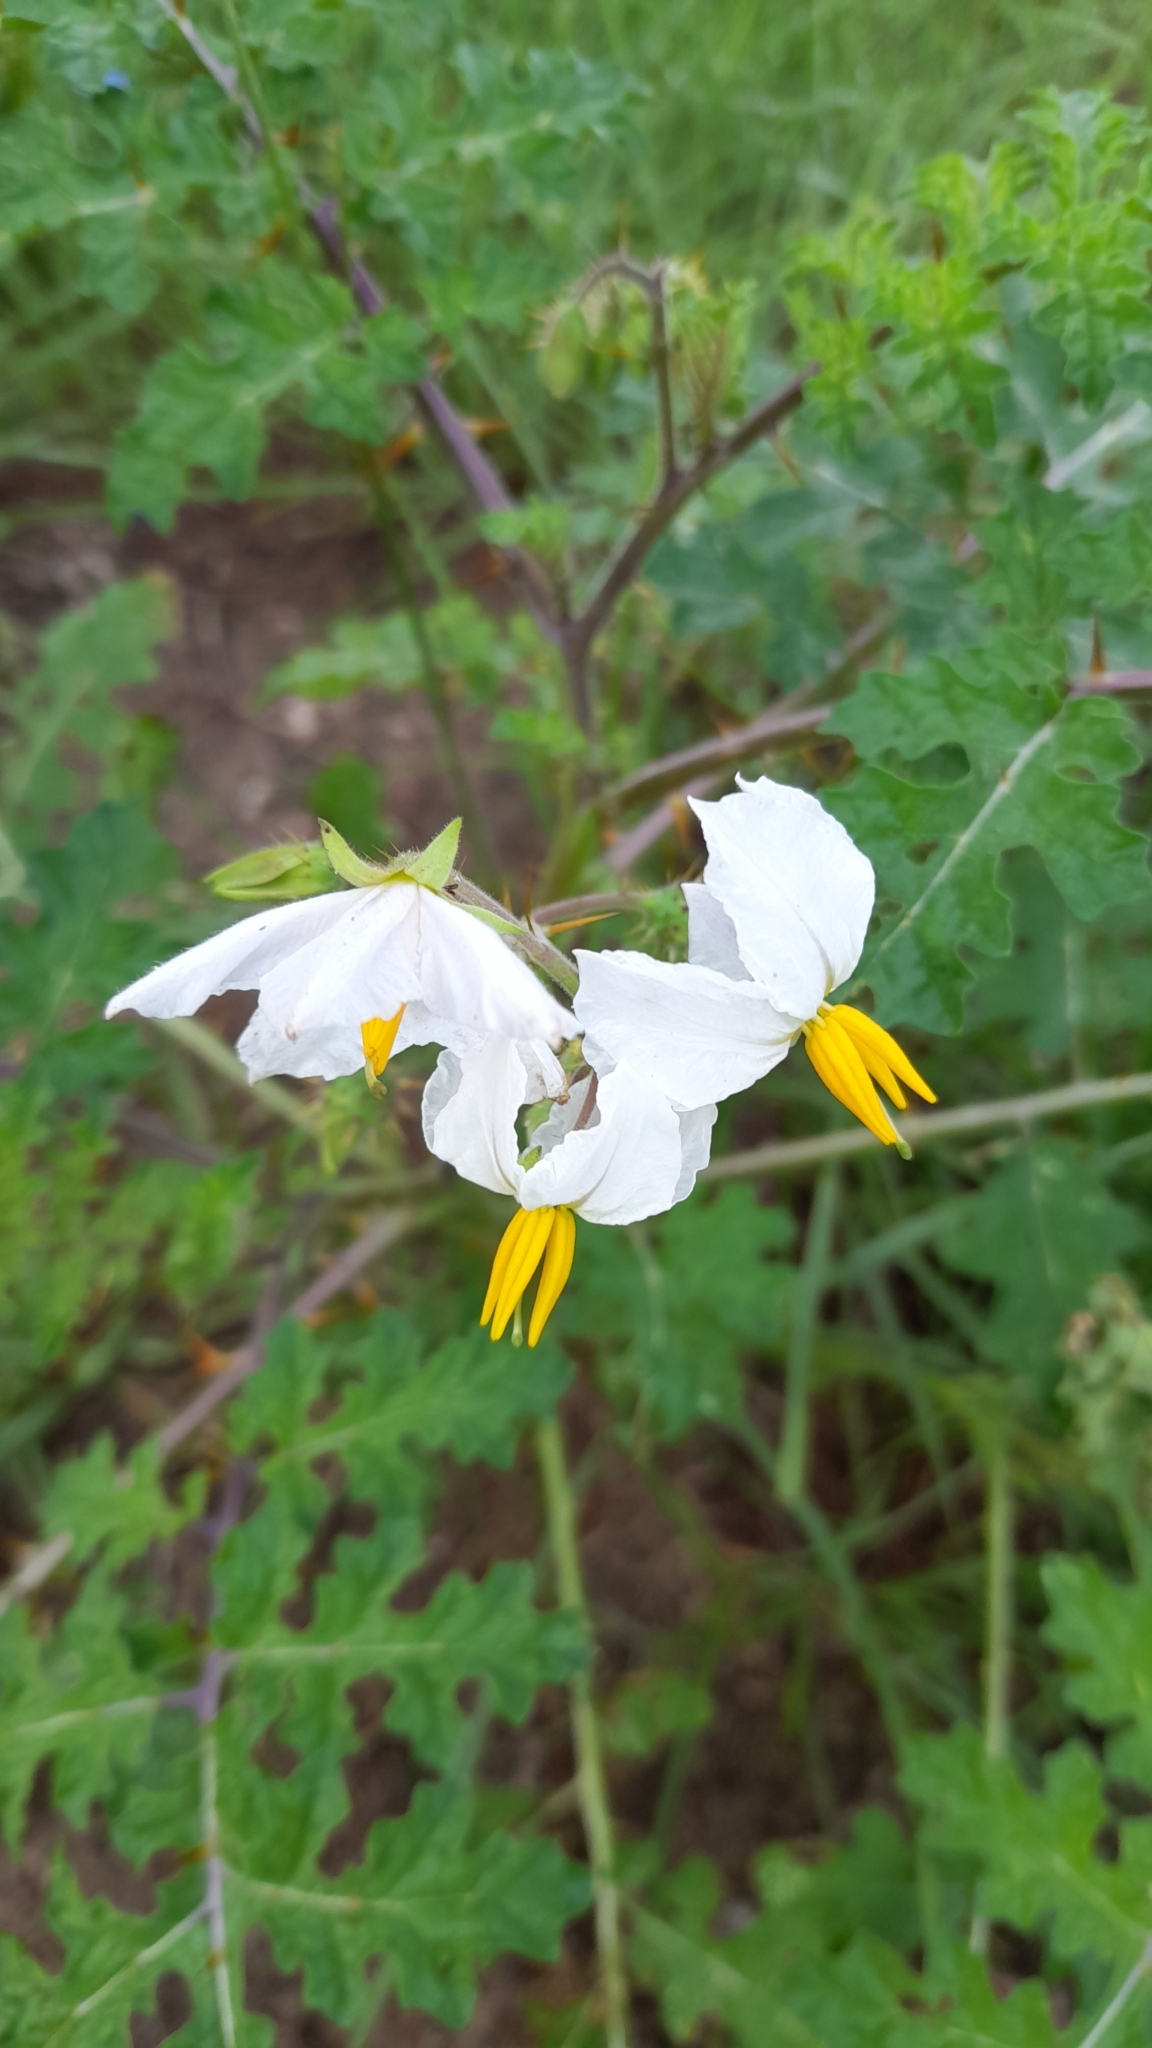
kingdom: Plantae
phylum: Tracheophyta
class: Magnoliopsida
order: Solanales
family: Solanaceae
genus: Solanum
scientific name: Solanum sisymbriifolium
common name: Red buffalo-bur
